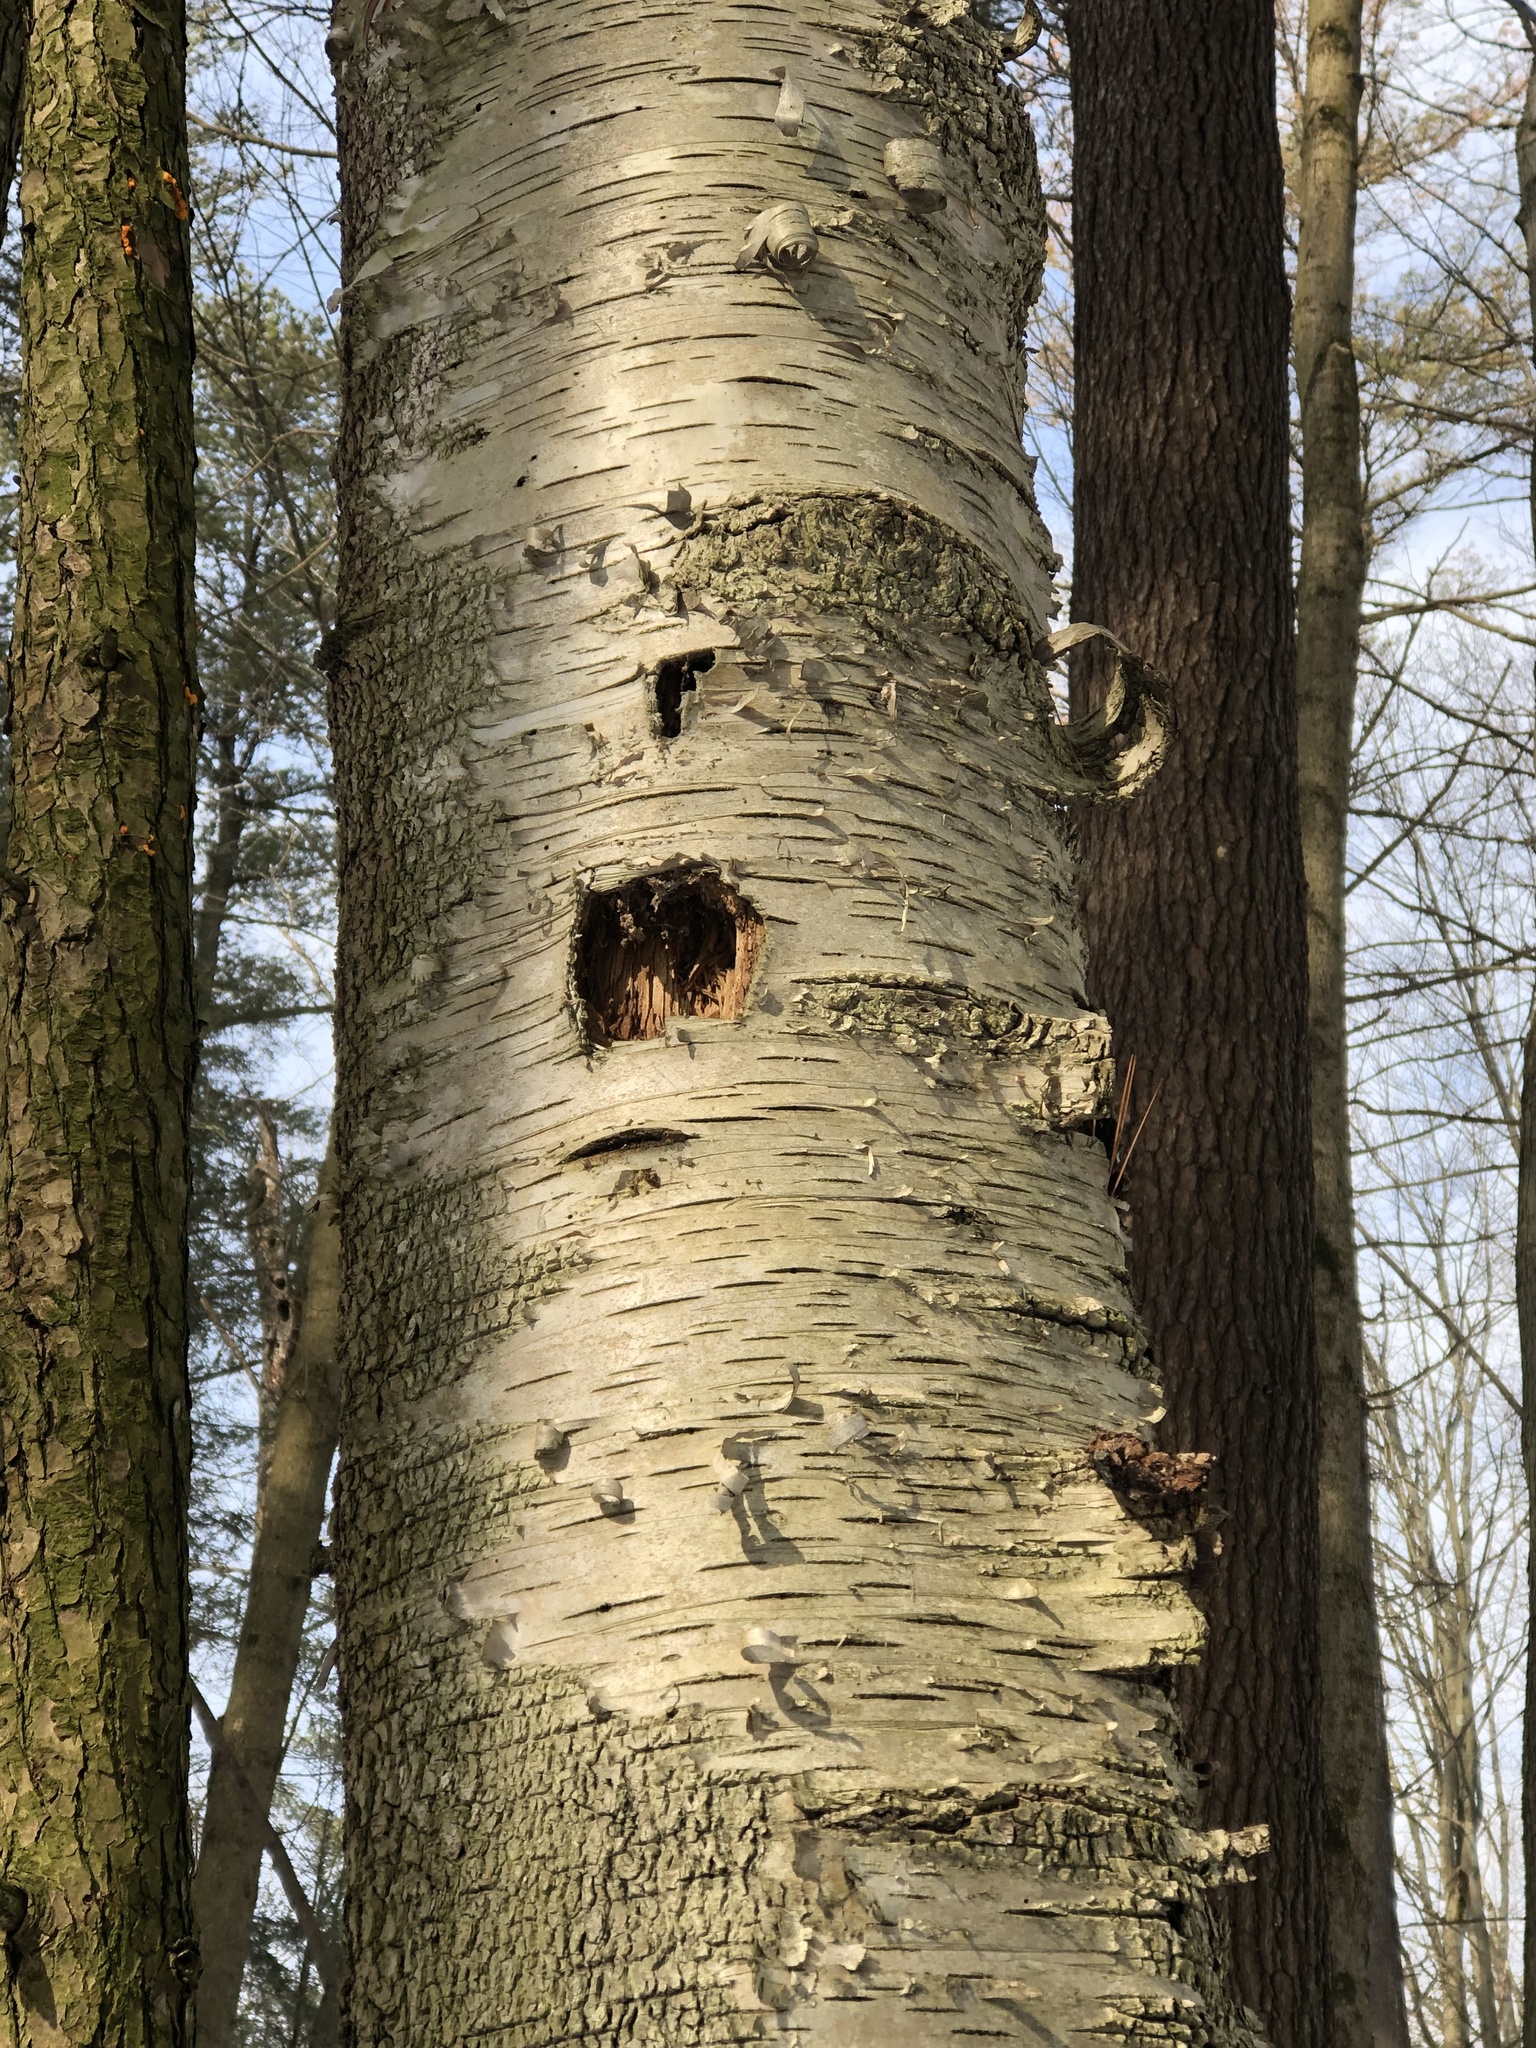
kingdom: Animalia
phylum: Chordata
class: Aves
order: Piciformes
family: Picidae
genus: Dryocopus
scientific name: Dryocopus pileatus
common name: Pileated woodpecker
